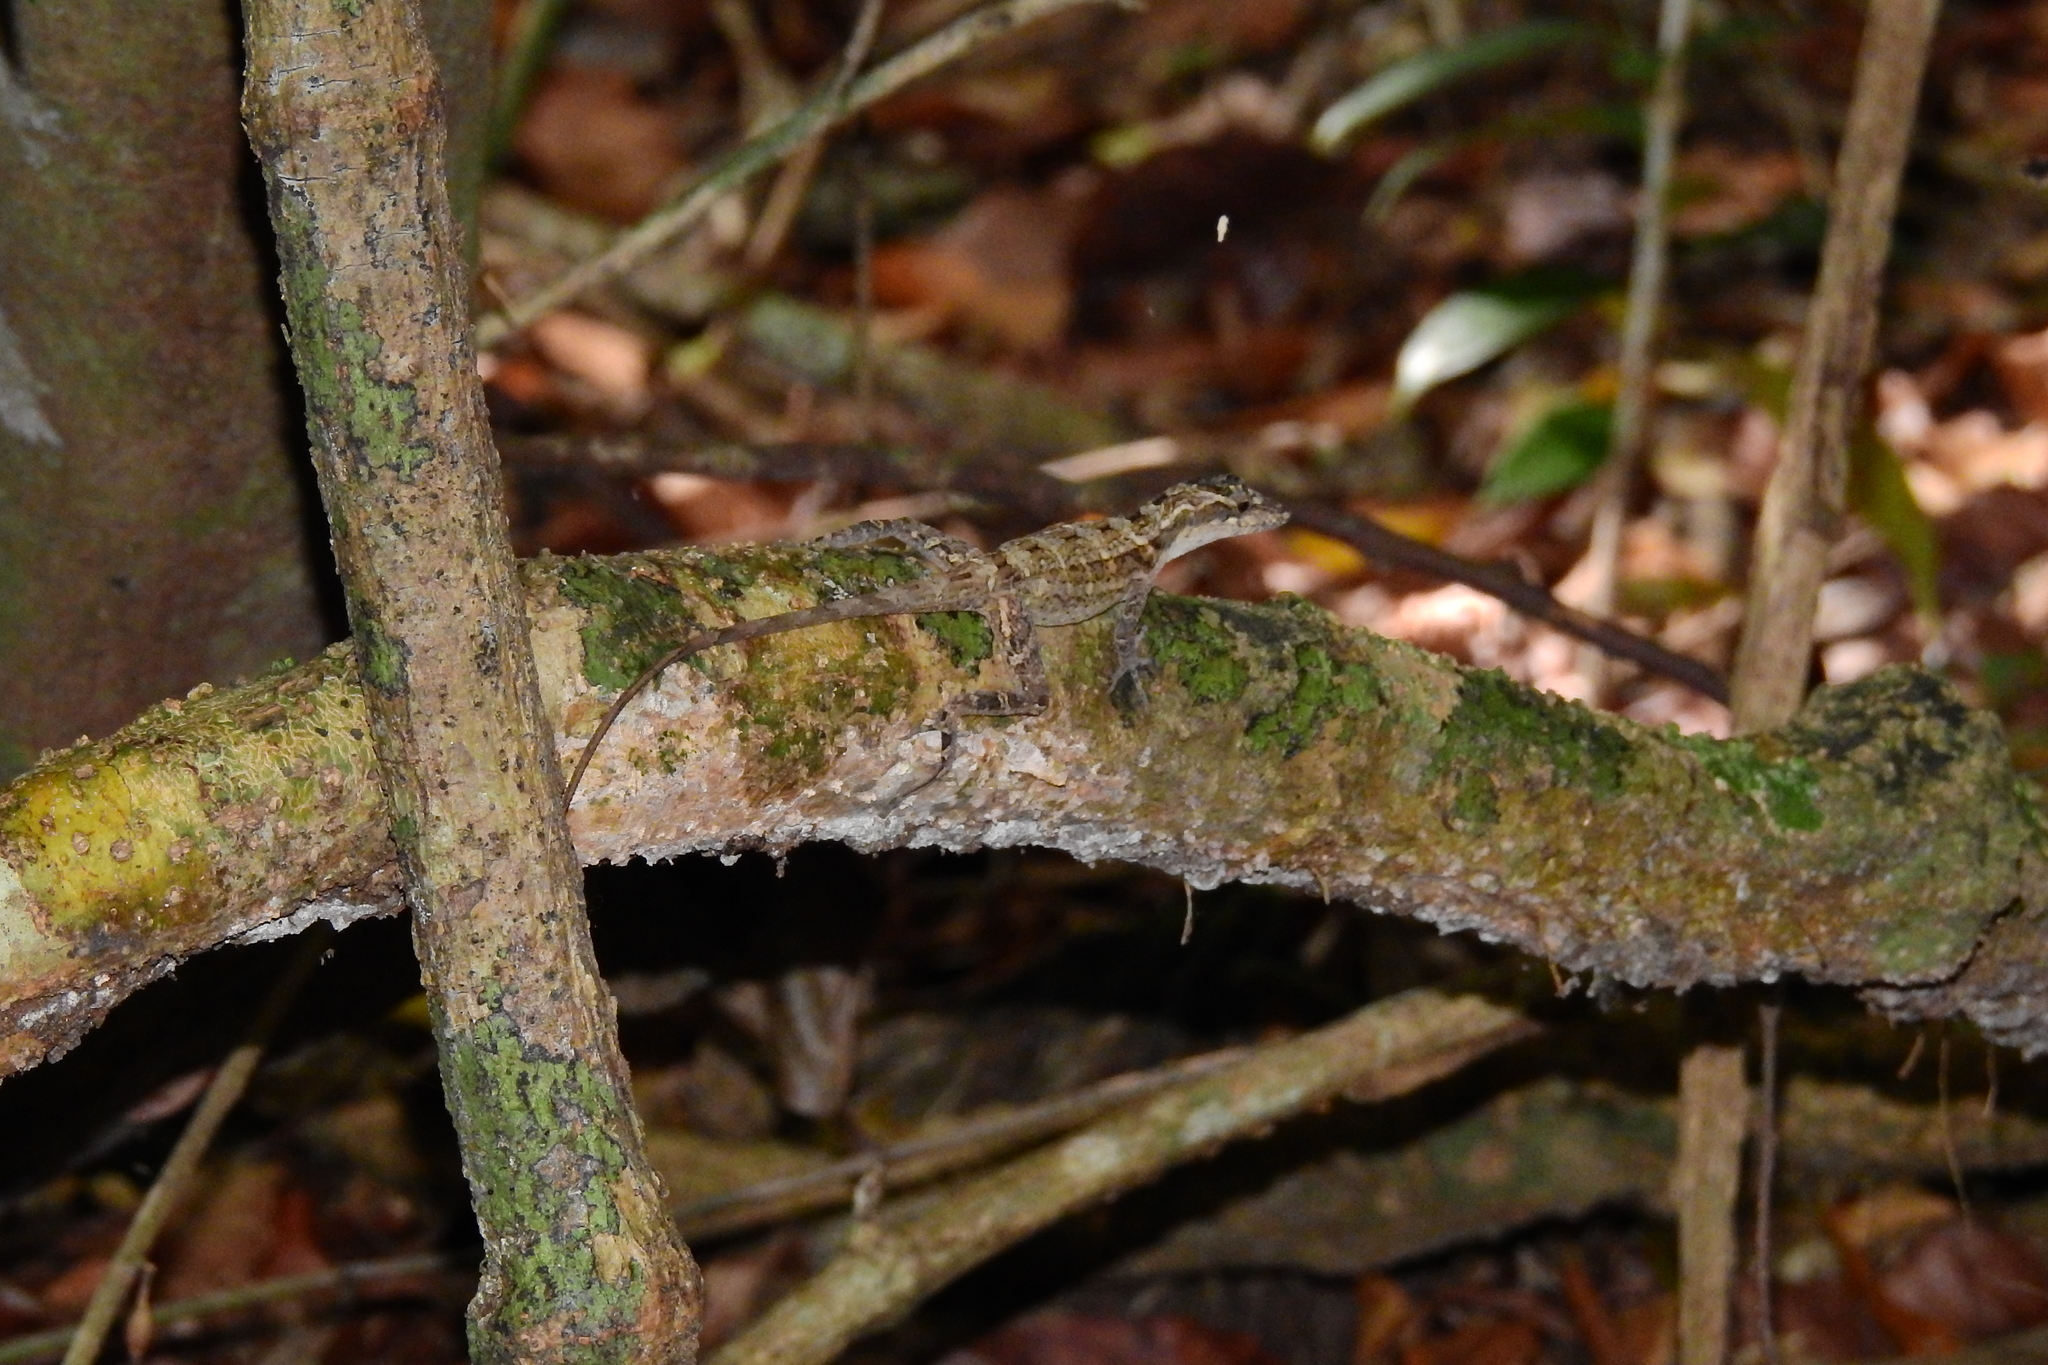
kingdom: Animalia
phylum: Chordata
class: Squamata
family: Dactyloidae
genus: Anolis
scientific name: Anolis lemurinus
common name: Ghost anole
